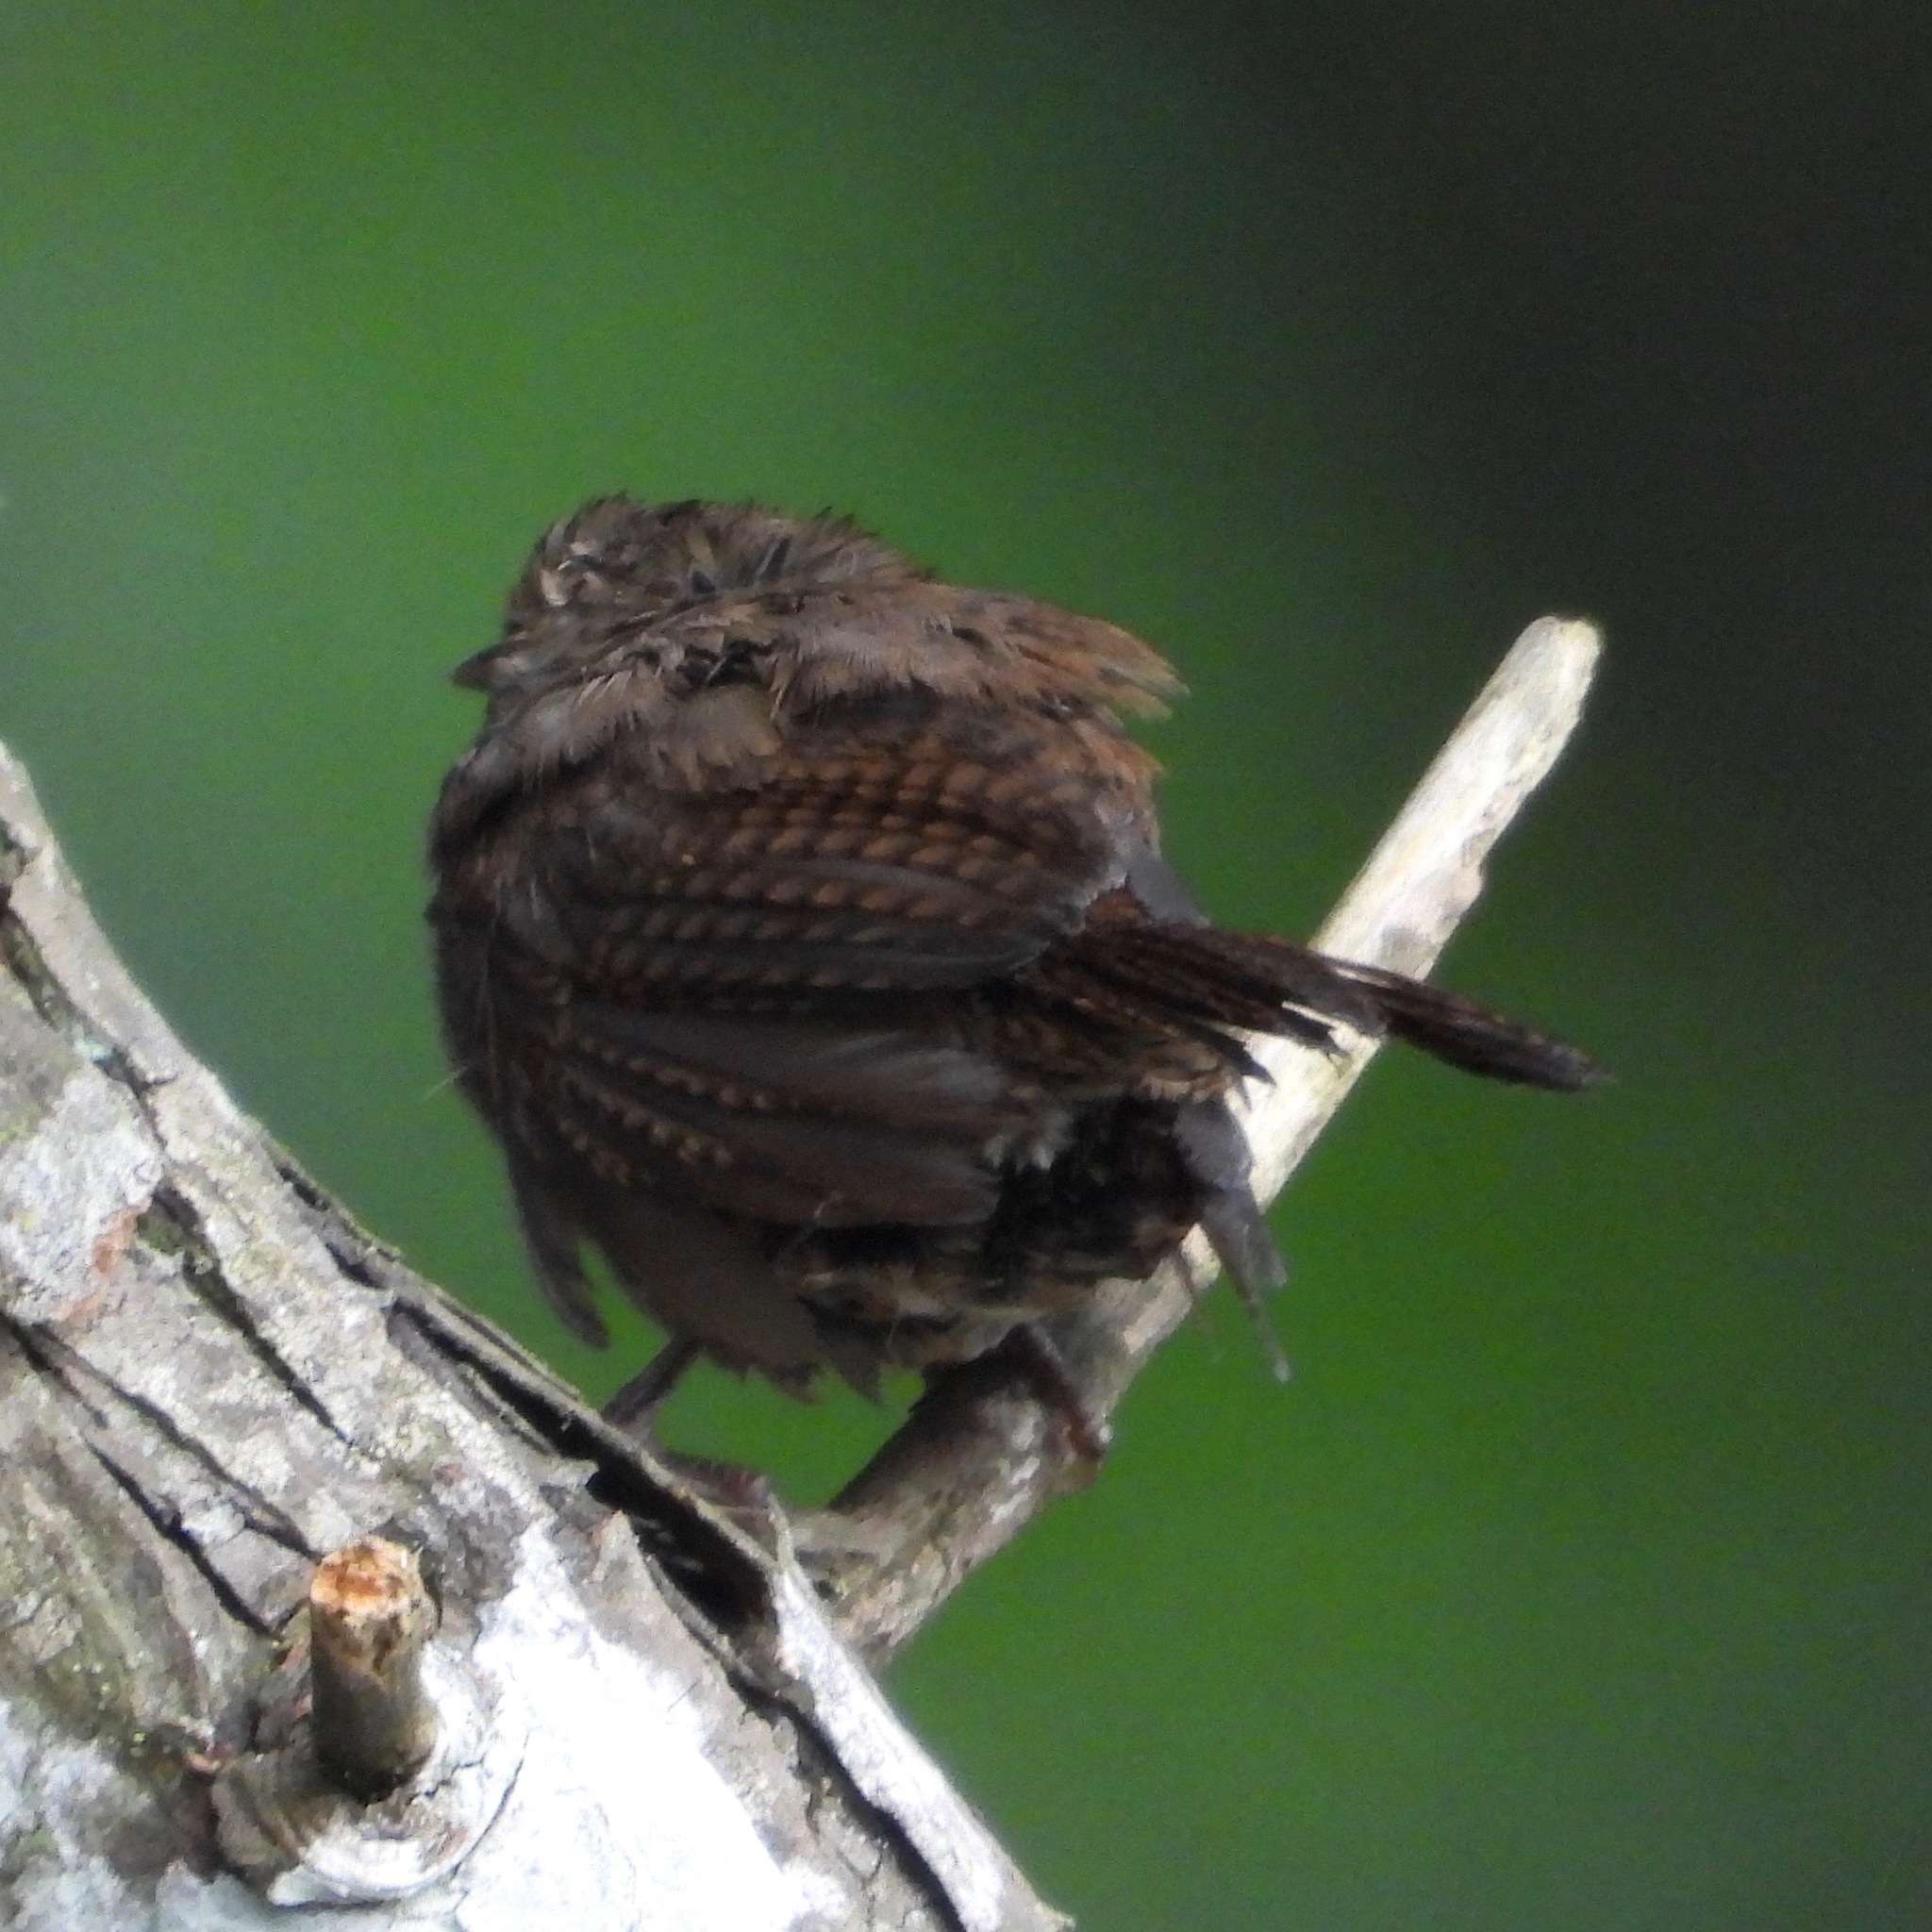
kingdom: Animalia
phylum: Chordata
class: Aves
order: Passeriformes
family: Troglodytidae
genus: Troglodytes
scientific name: Troglodytes aedon
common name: House wren
